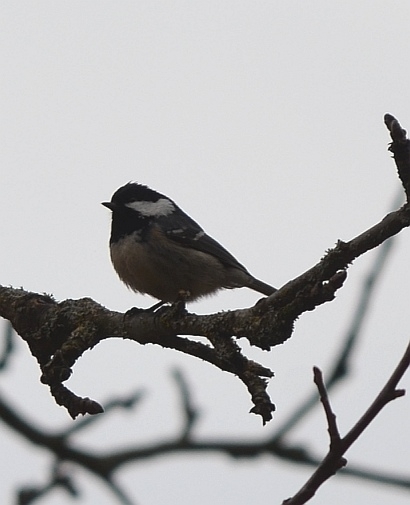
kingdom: Animalia
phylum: Chordata
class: Aves
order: Passeriformes
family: Paridae
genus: Periparus
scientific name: Periparus ater
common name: Coal tit
